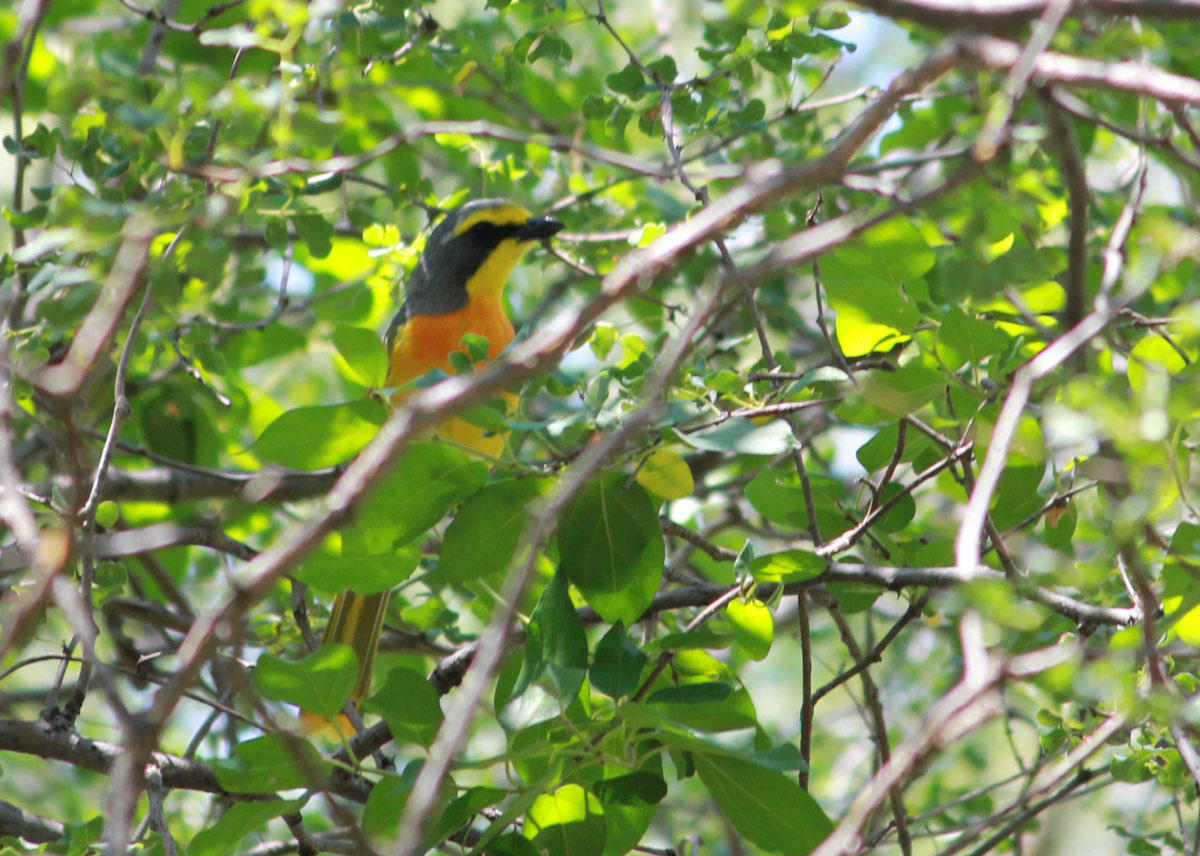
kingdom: Animalia
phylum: Chordata
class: Aves
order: Passeriformes
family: Malaconotidae
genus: Chlorophoneus
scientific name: Chlorophoneus sulfureopectus
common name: Orange-breasted bushshrike
